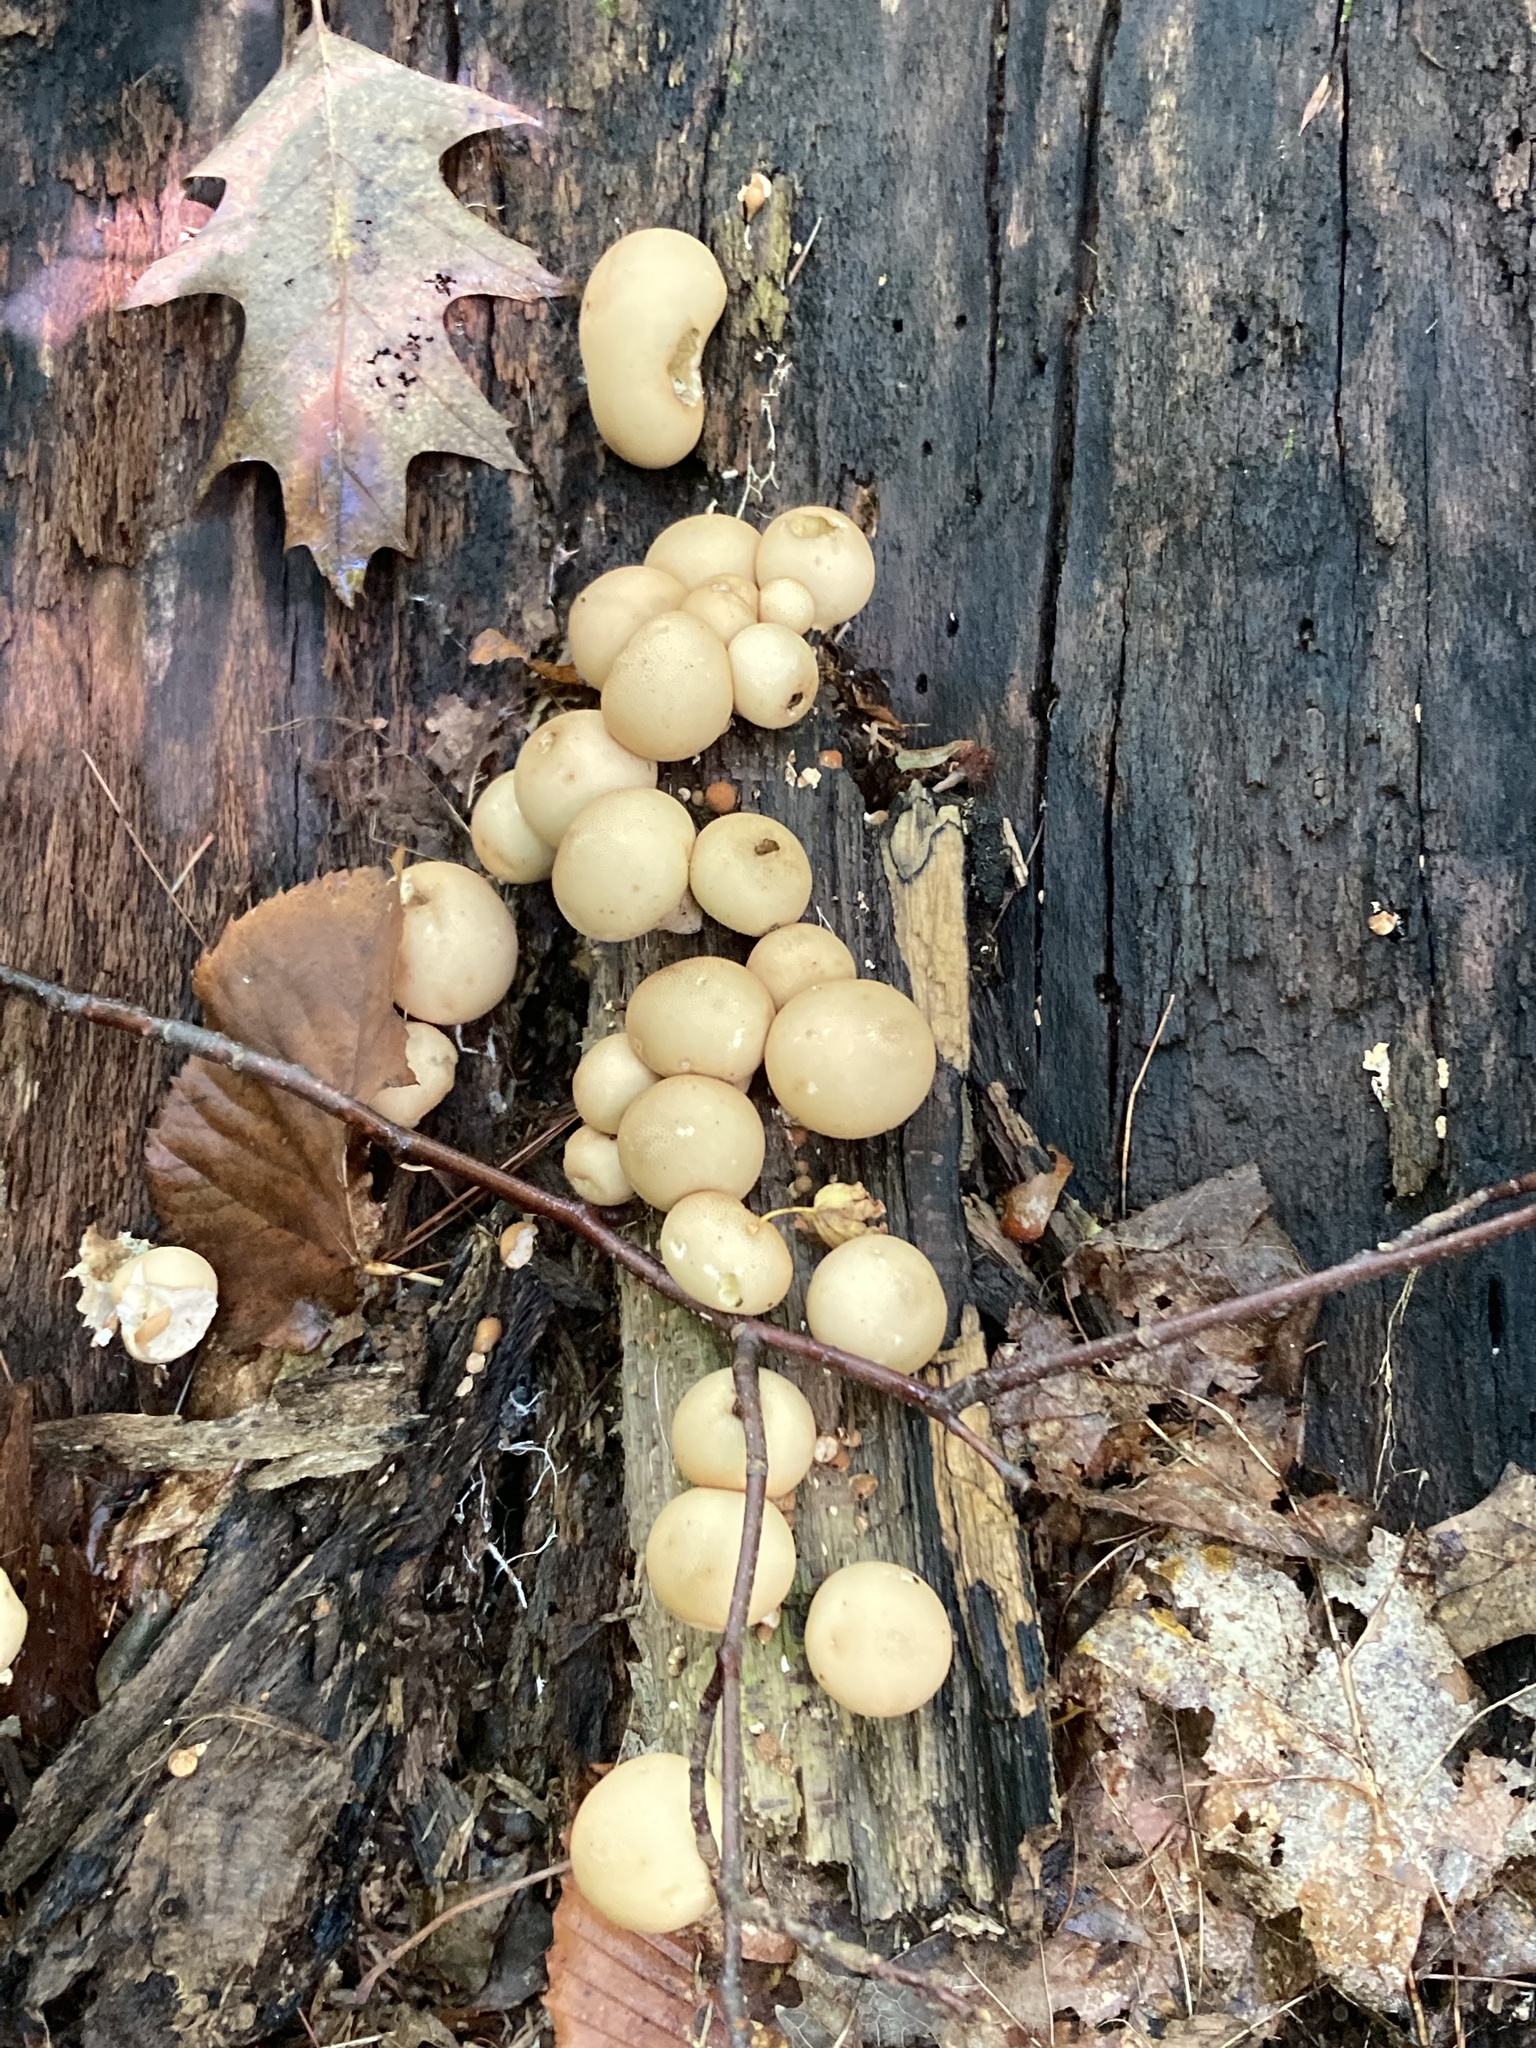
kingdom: Fungi
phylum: Basidiomycota
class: Agaricomycetes
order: Agaricales
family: Lycoperdaceae
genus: Apioperdon
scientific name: Apioperdon pyriforme
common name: Pear-shaped puffball
